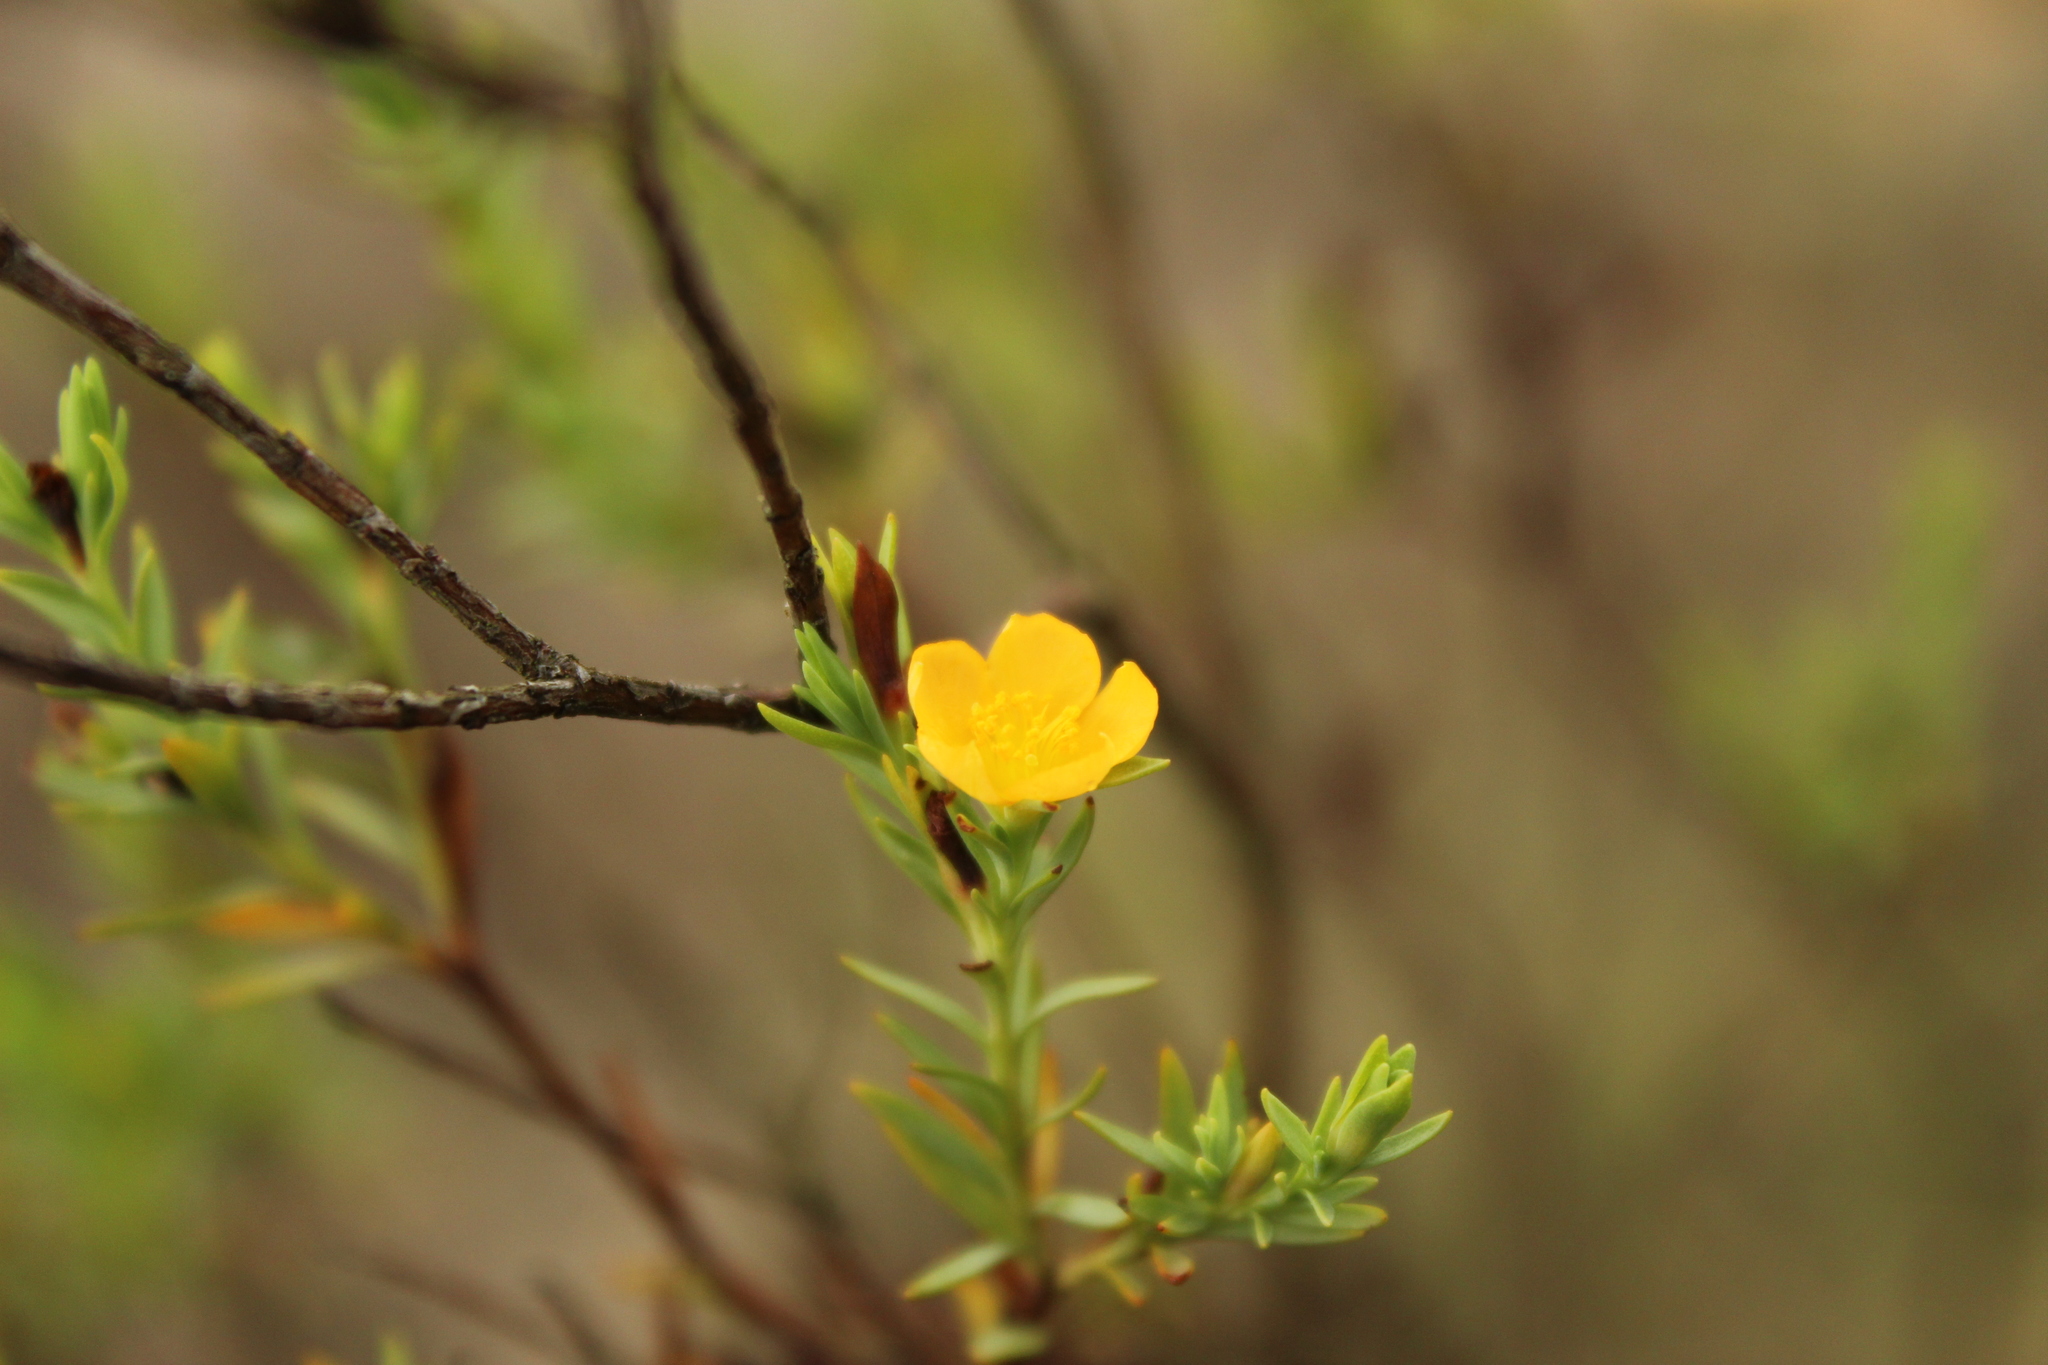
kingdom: Plantae
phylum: Tracheophyta
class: Magnoliopsida
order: Malpighiales
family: Hypericaceae
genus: Hypericum
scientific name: Hypericum humboldtianum
